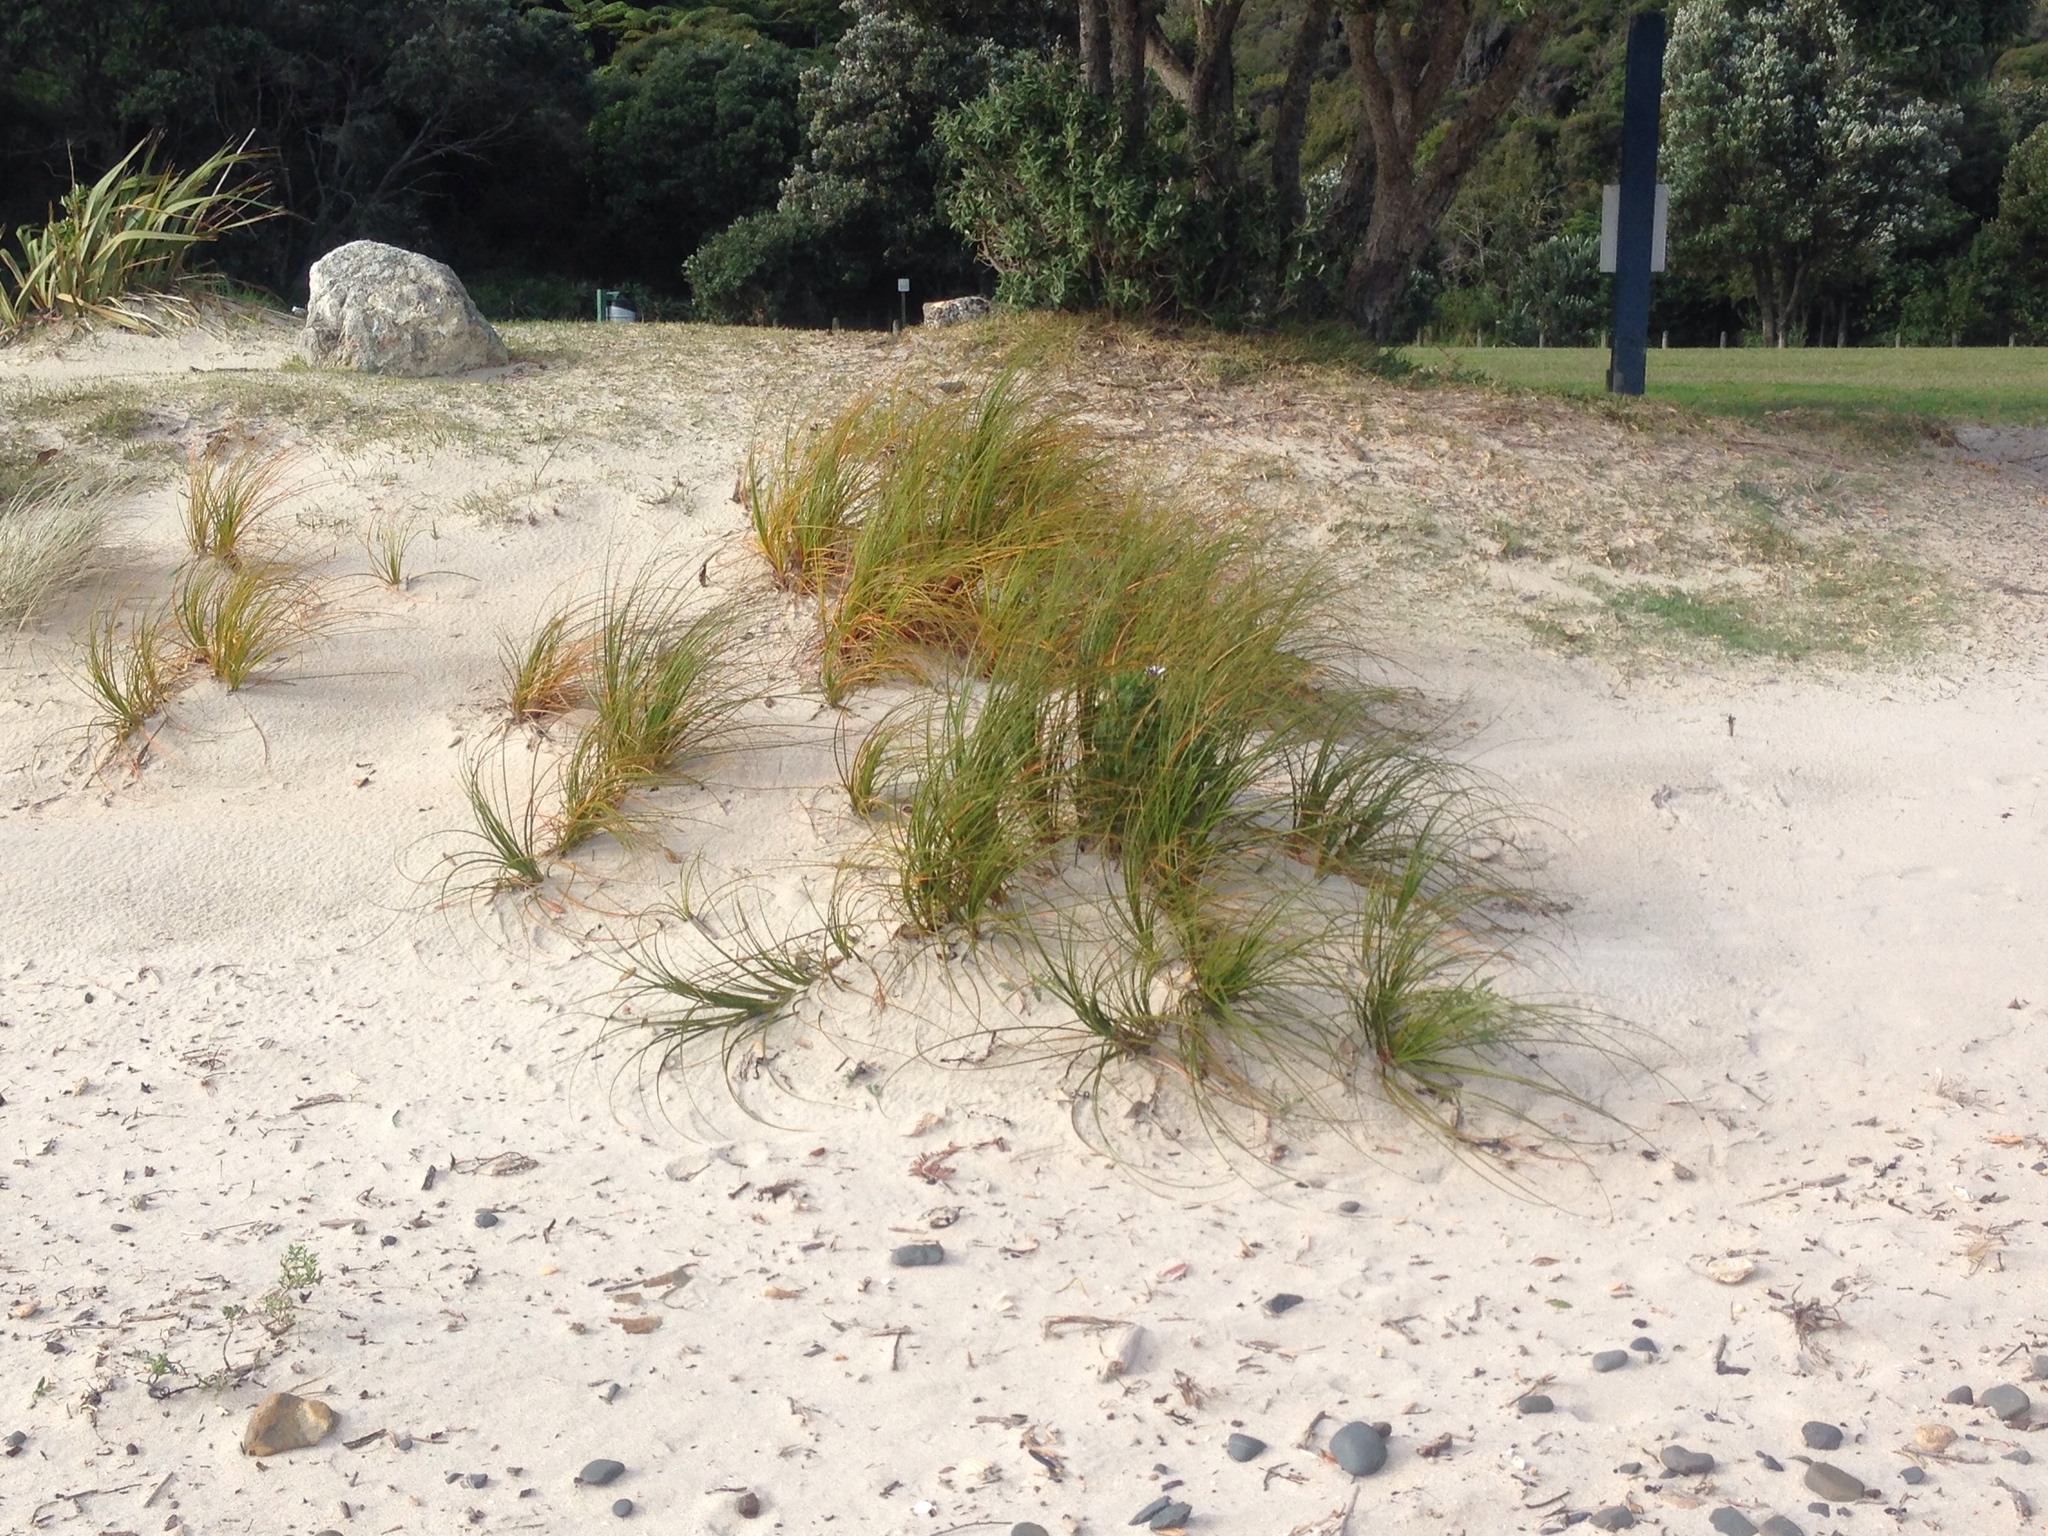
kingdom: Plantae
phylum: Tracheophyta
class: Liliopsida
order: Poales
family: Cyperaceae
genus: Ficinia
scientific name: Ficinia spiralis
